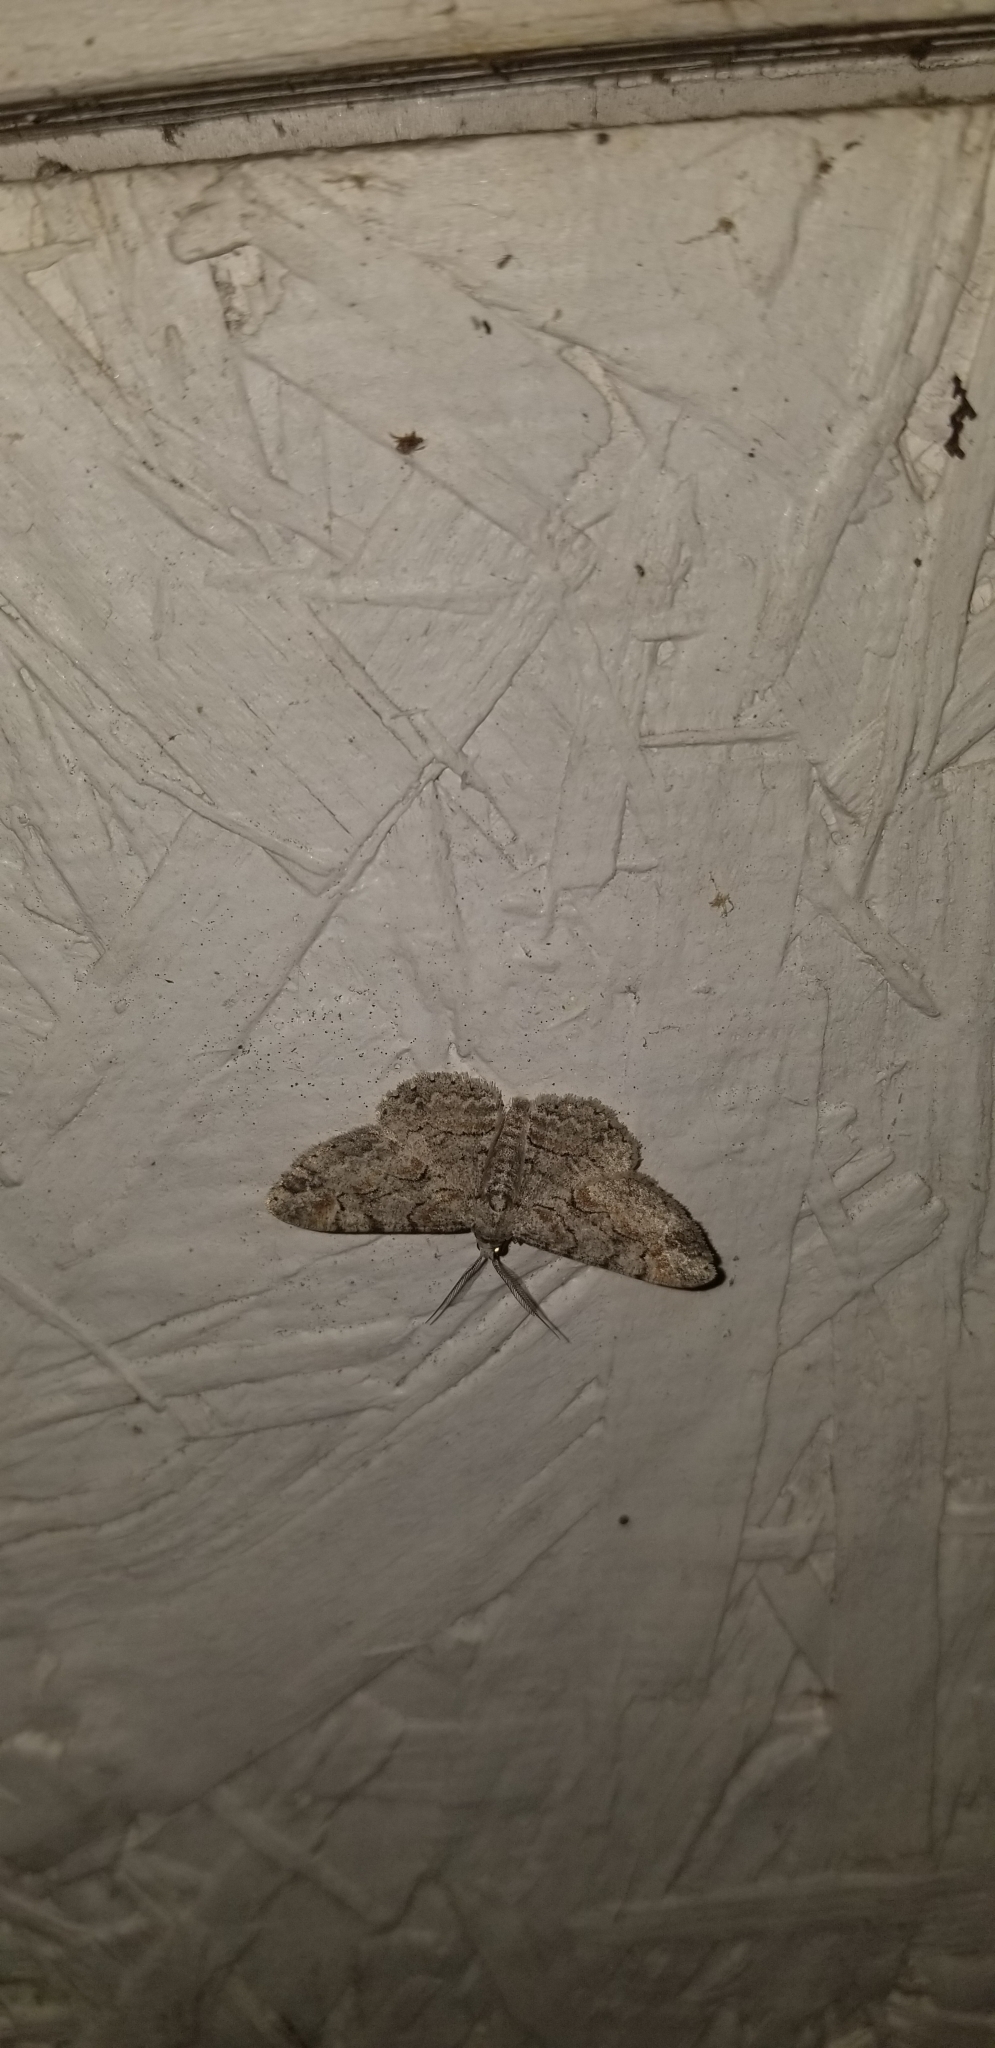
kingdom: Animalia
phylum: Arthropoda
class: Insecta
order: Lepidoptera
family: Geometridae
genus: Iridopsis
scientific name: Iridopsis defectaria
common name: Brown-shaded gray
